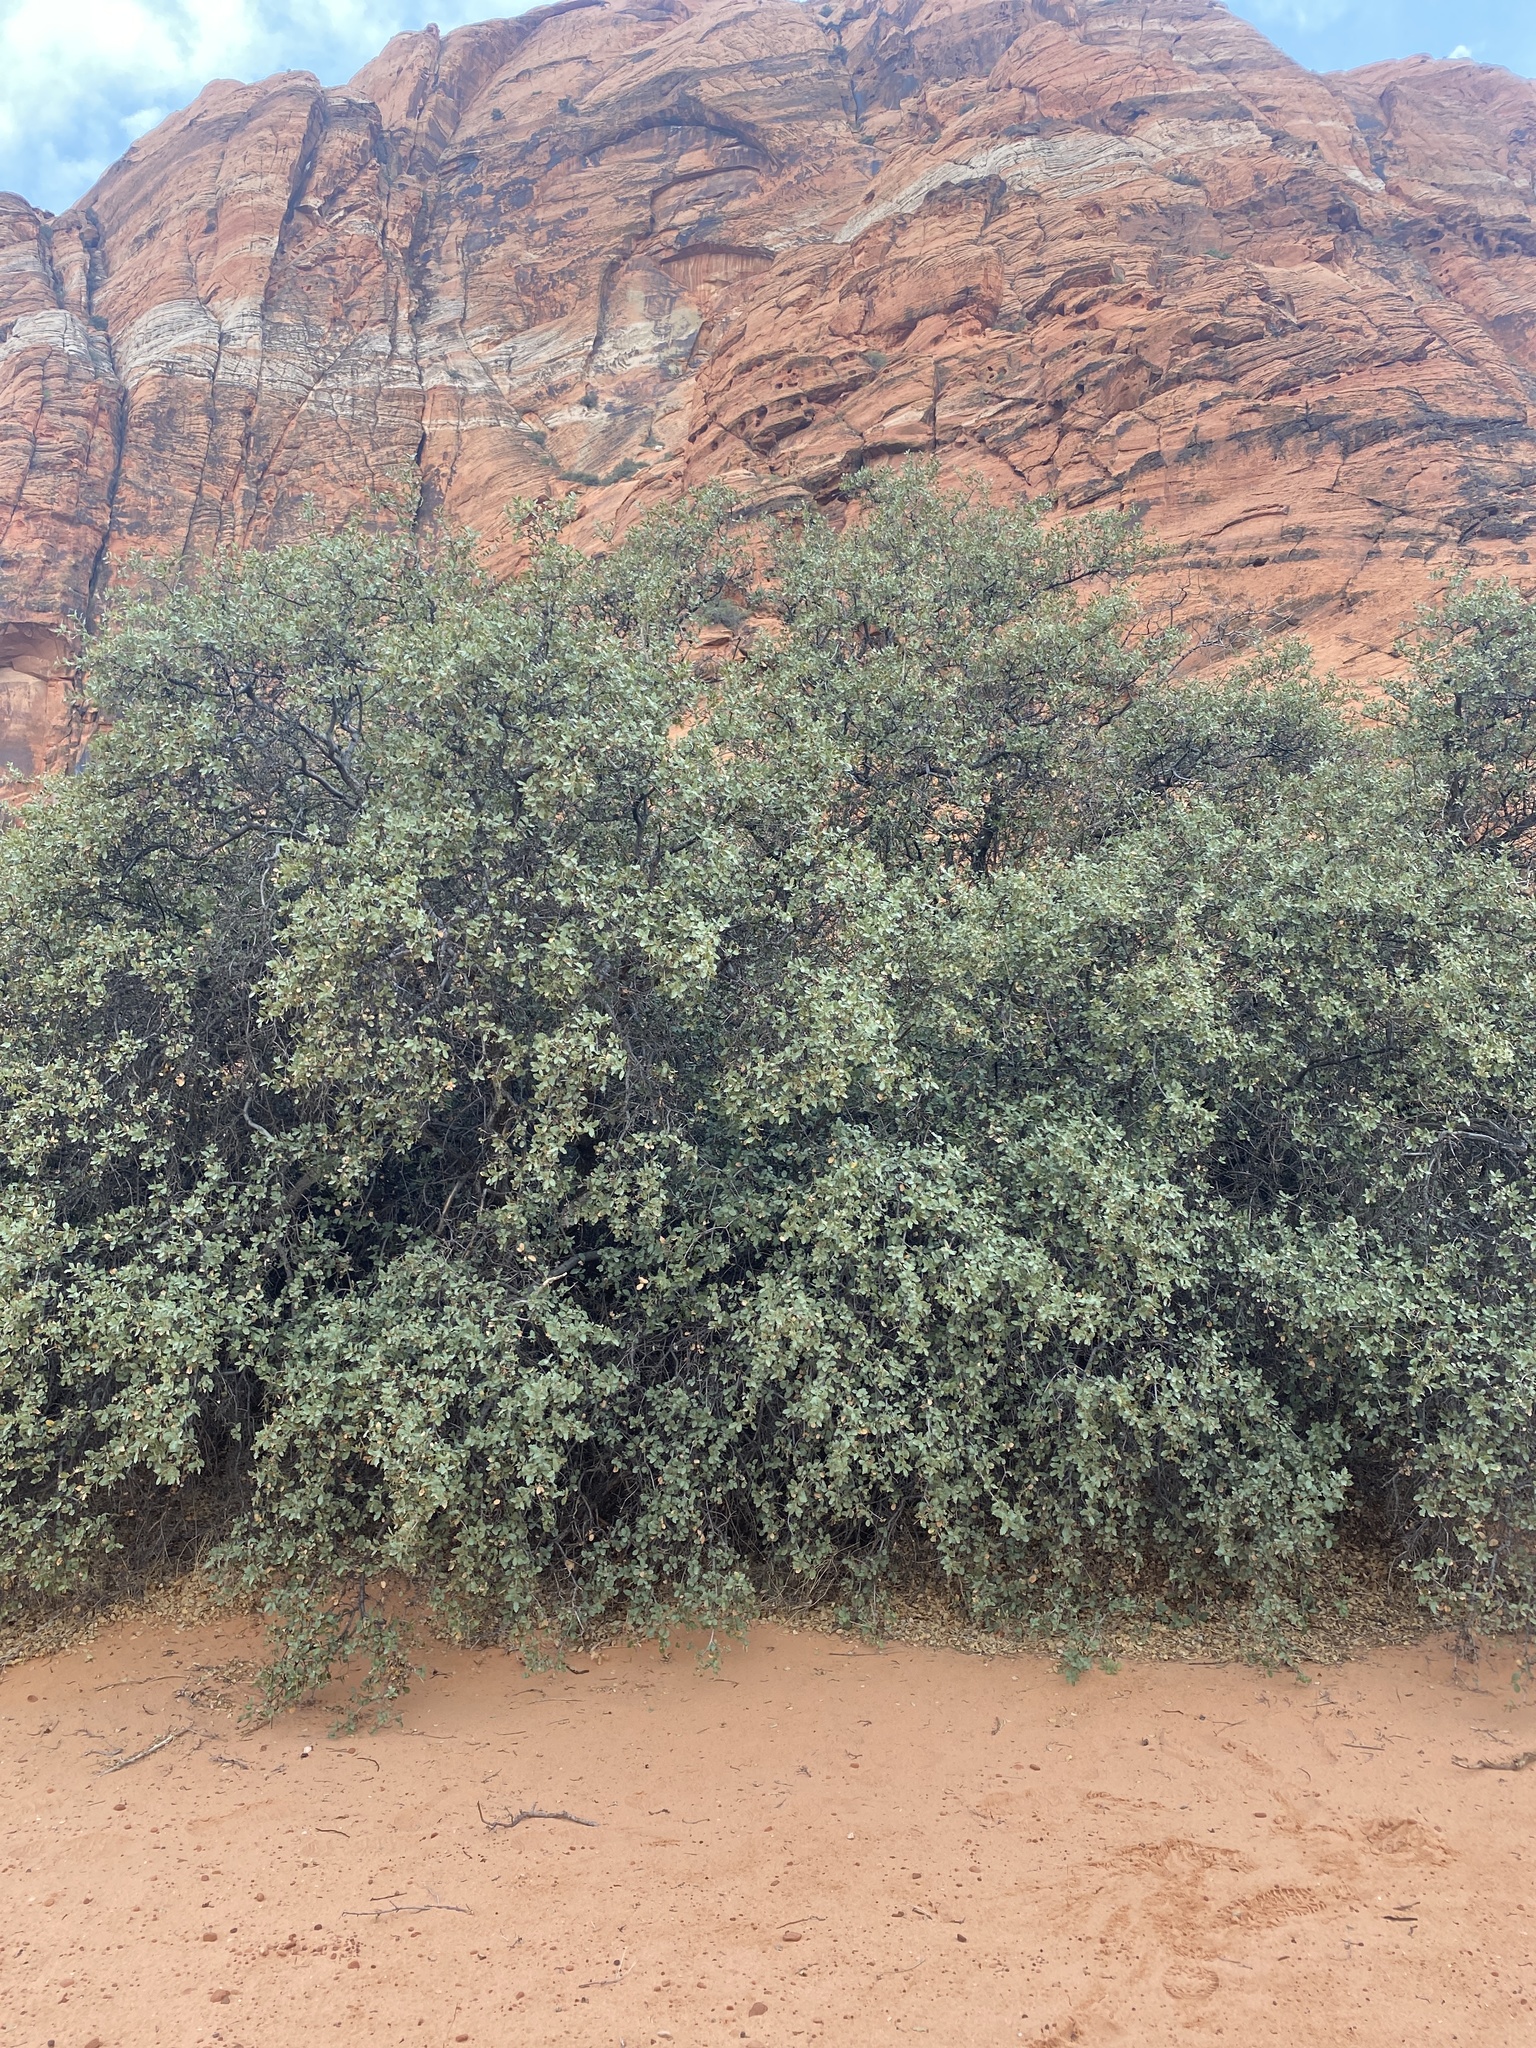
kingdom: Plantae
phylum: Tracheophyta
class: Magnoliopsida
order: Fagales
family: Fagaceae
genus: Quercus
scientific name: Quercus turbinella
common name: Sonoran scrub oak
